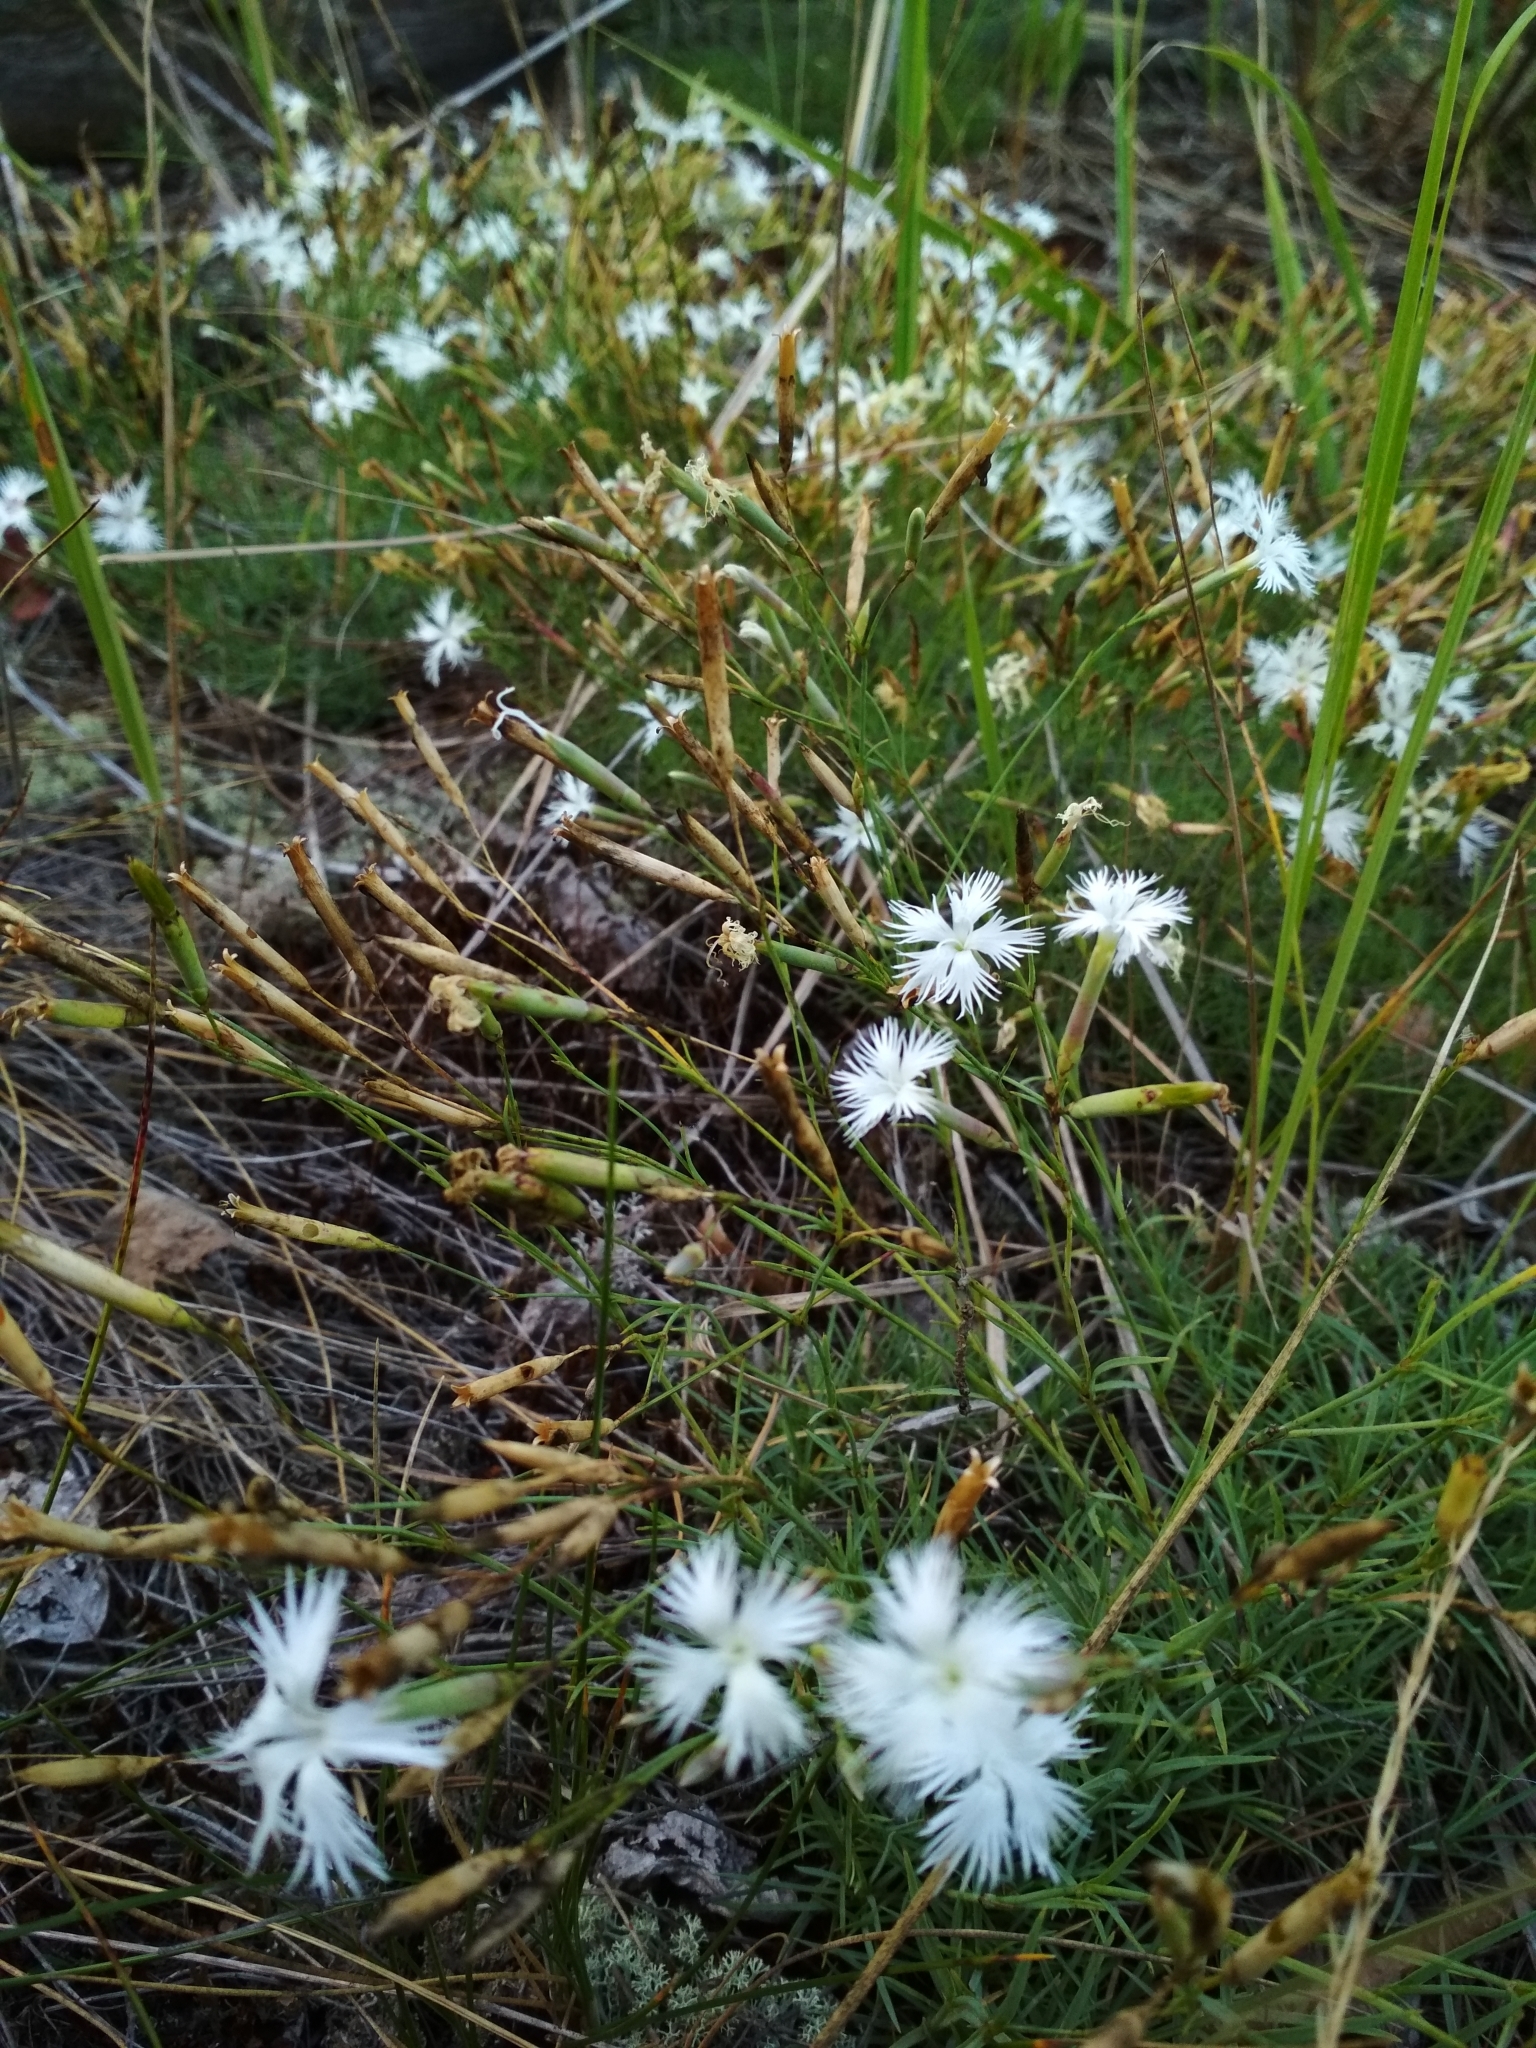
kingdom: Plantae
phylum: Tracheophyta
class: Magnoliopsida
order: Caryophyllales
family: Caryophyllaceae
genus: Dianthus
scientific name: Dianthus arenarius
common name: Stone pink
